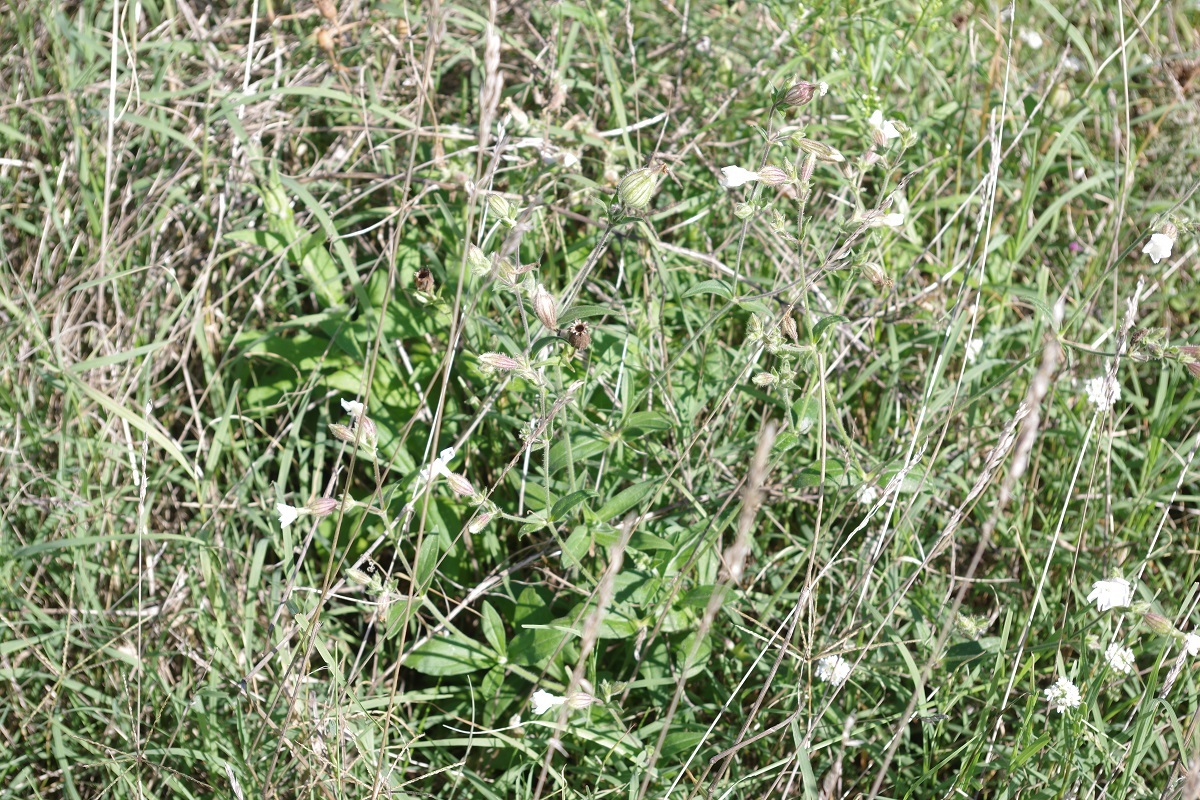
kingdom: Plantae
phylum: Tracheophyta
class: Magnoliopsida
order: Caryophyllales
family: Caryophyllaceae
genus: Silene
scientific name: Silene latifolia
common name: White campion
